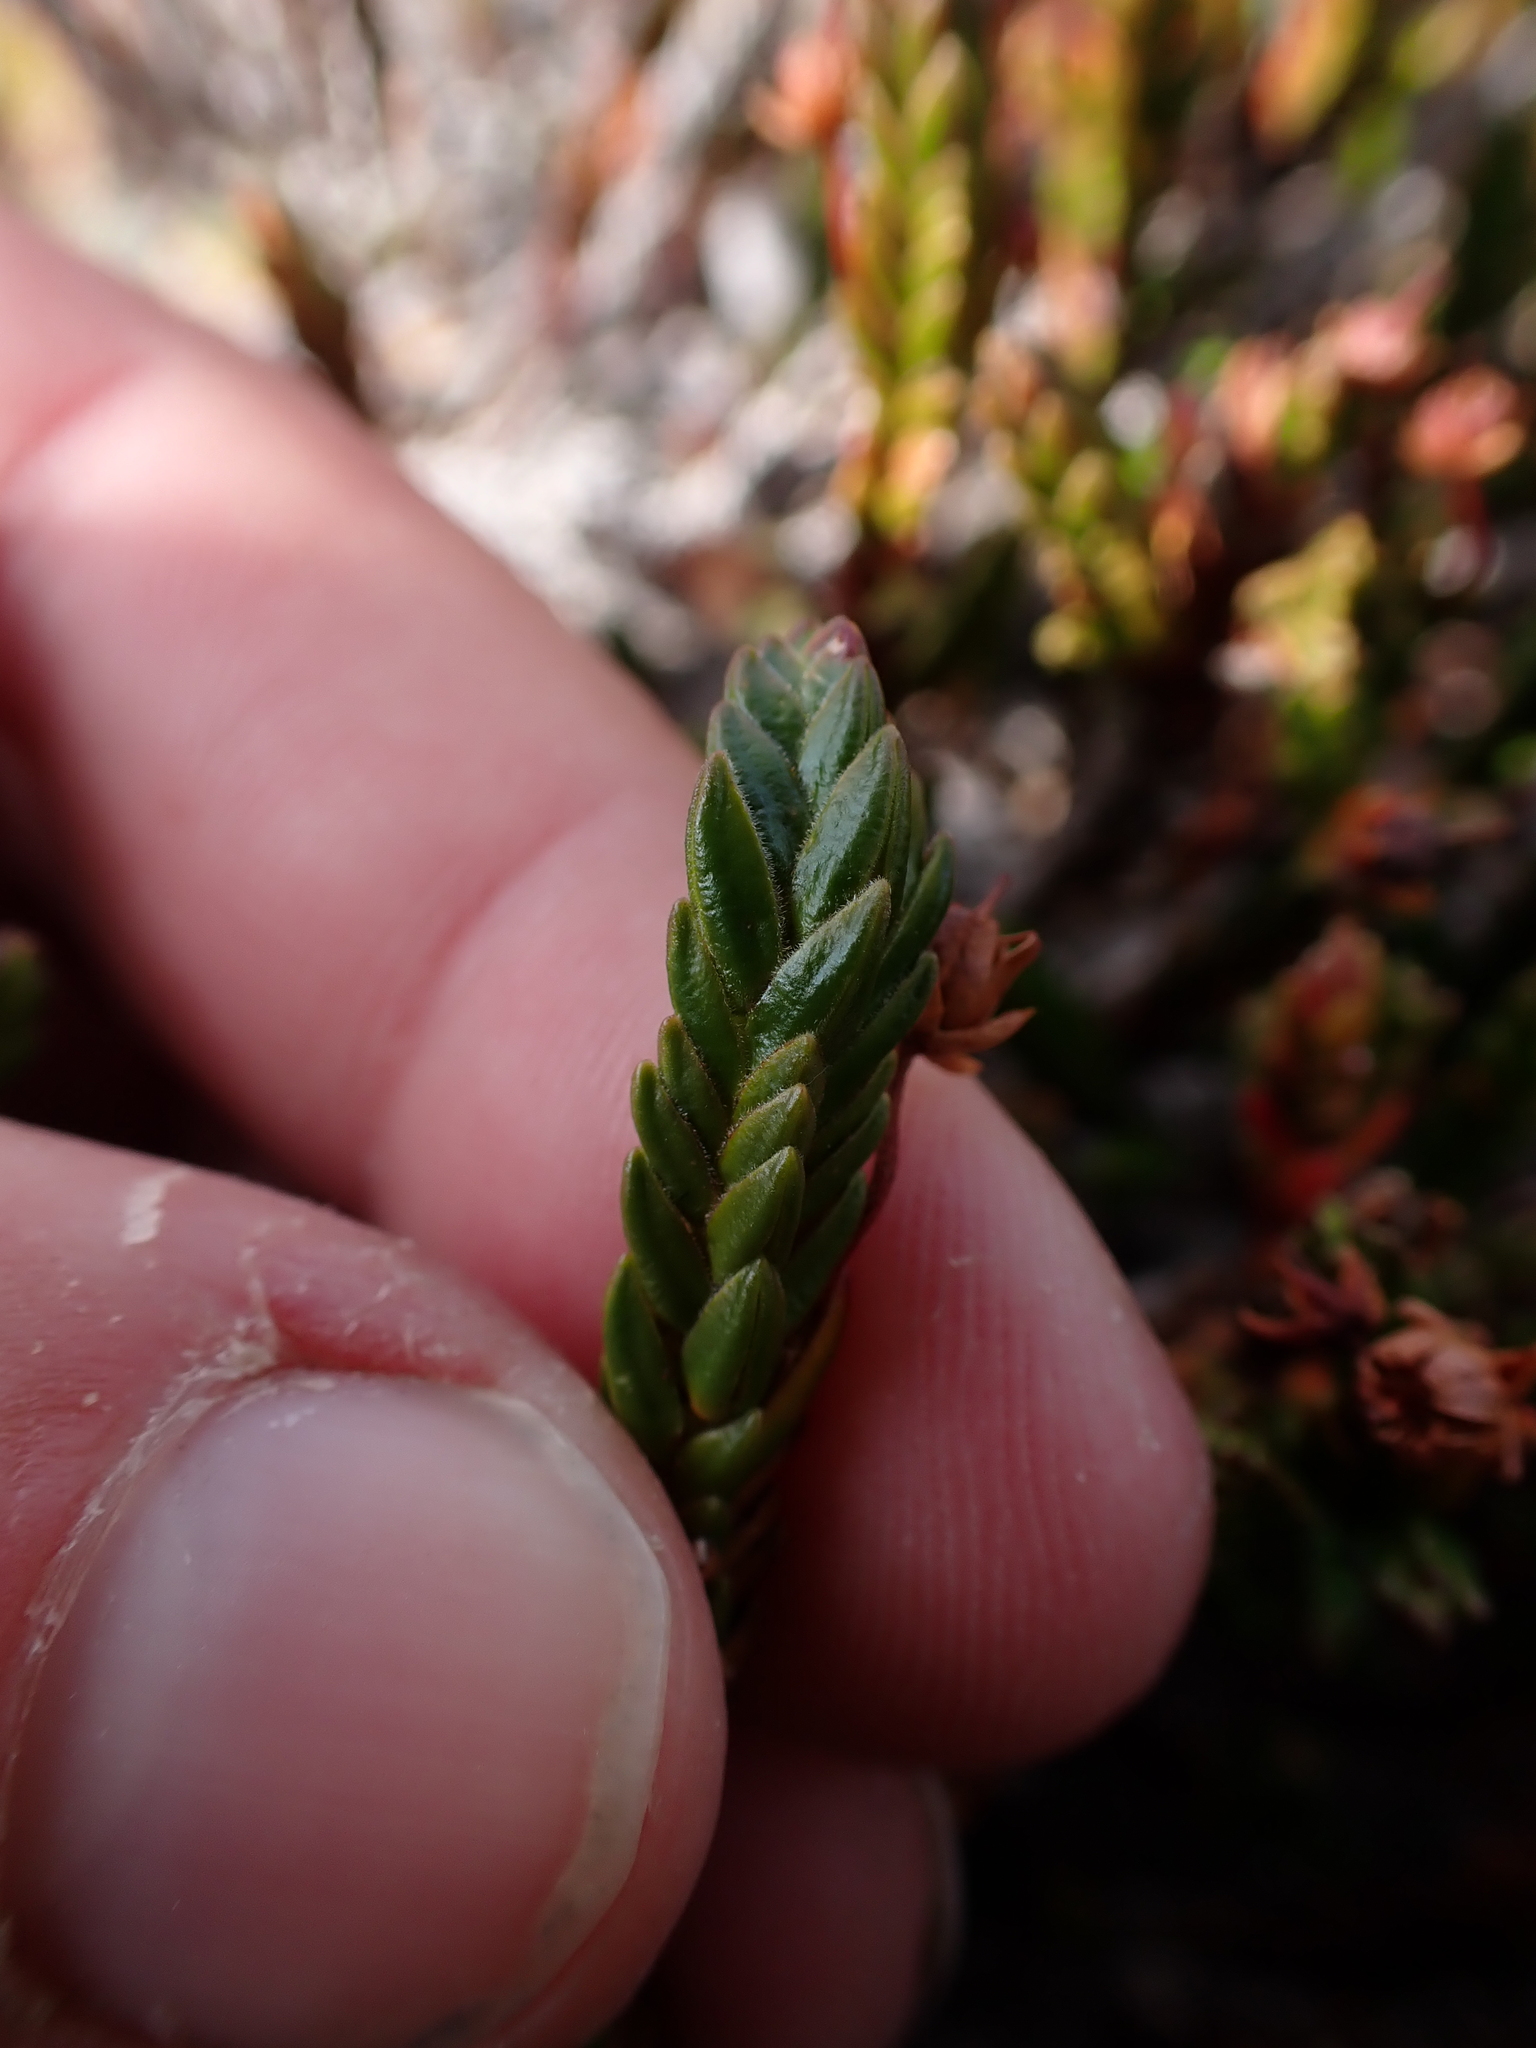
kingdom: Plantae
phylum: Tracheophyta
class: Magnoliopsida
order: Ericales
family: Ericaceae
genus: Cassiope
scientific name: Cassiope tetragona
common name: Arctic bell heather
